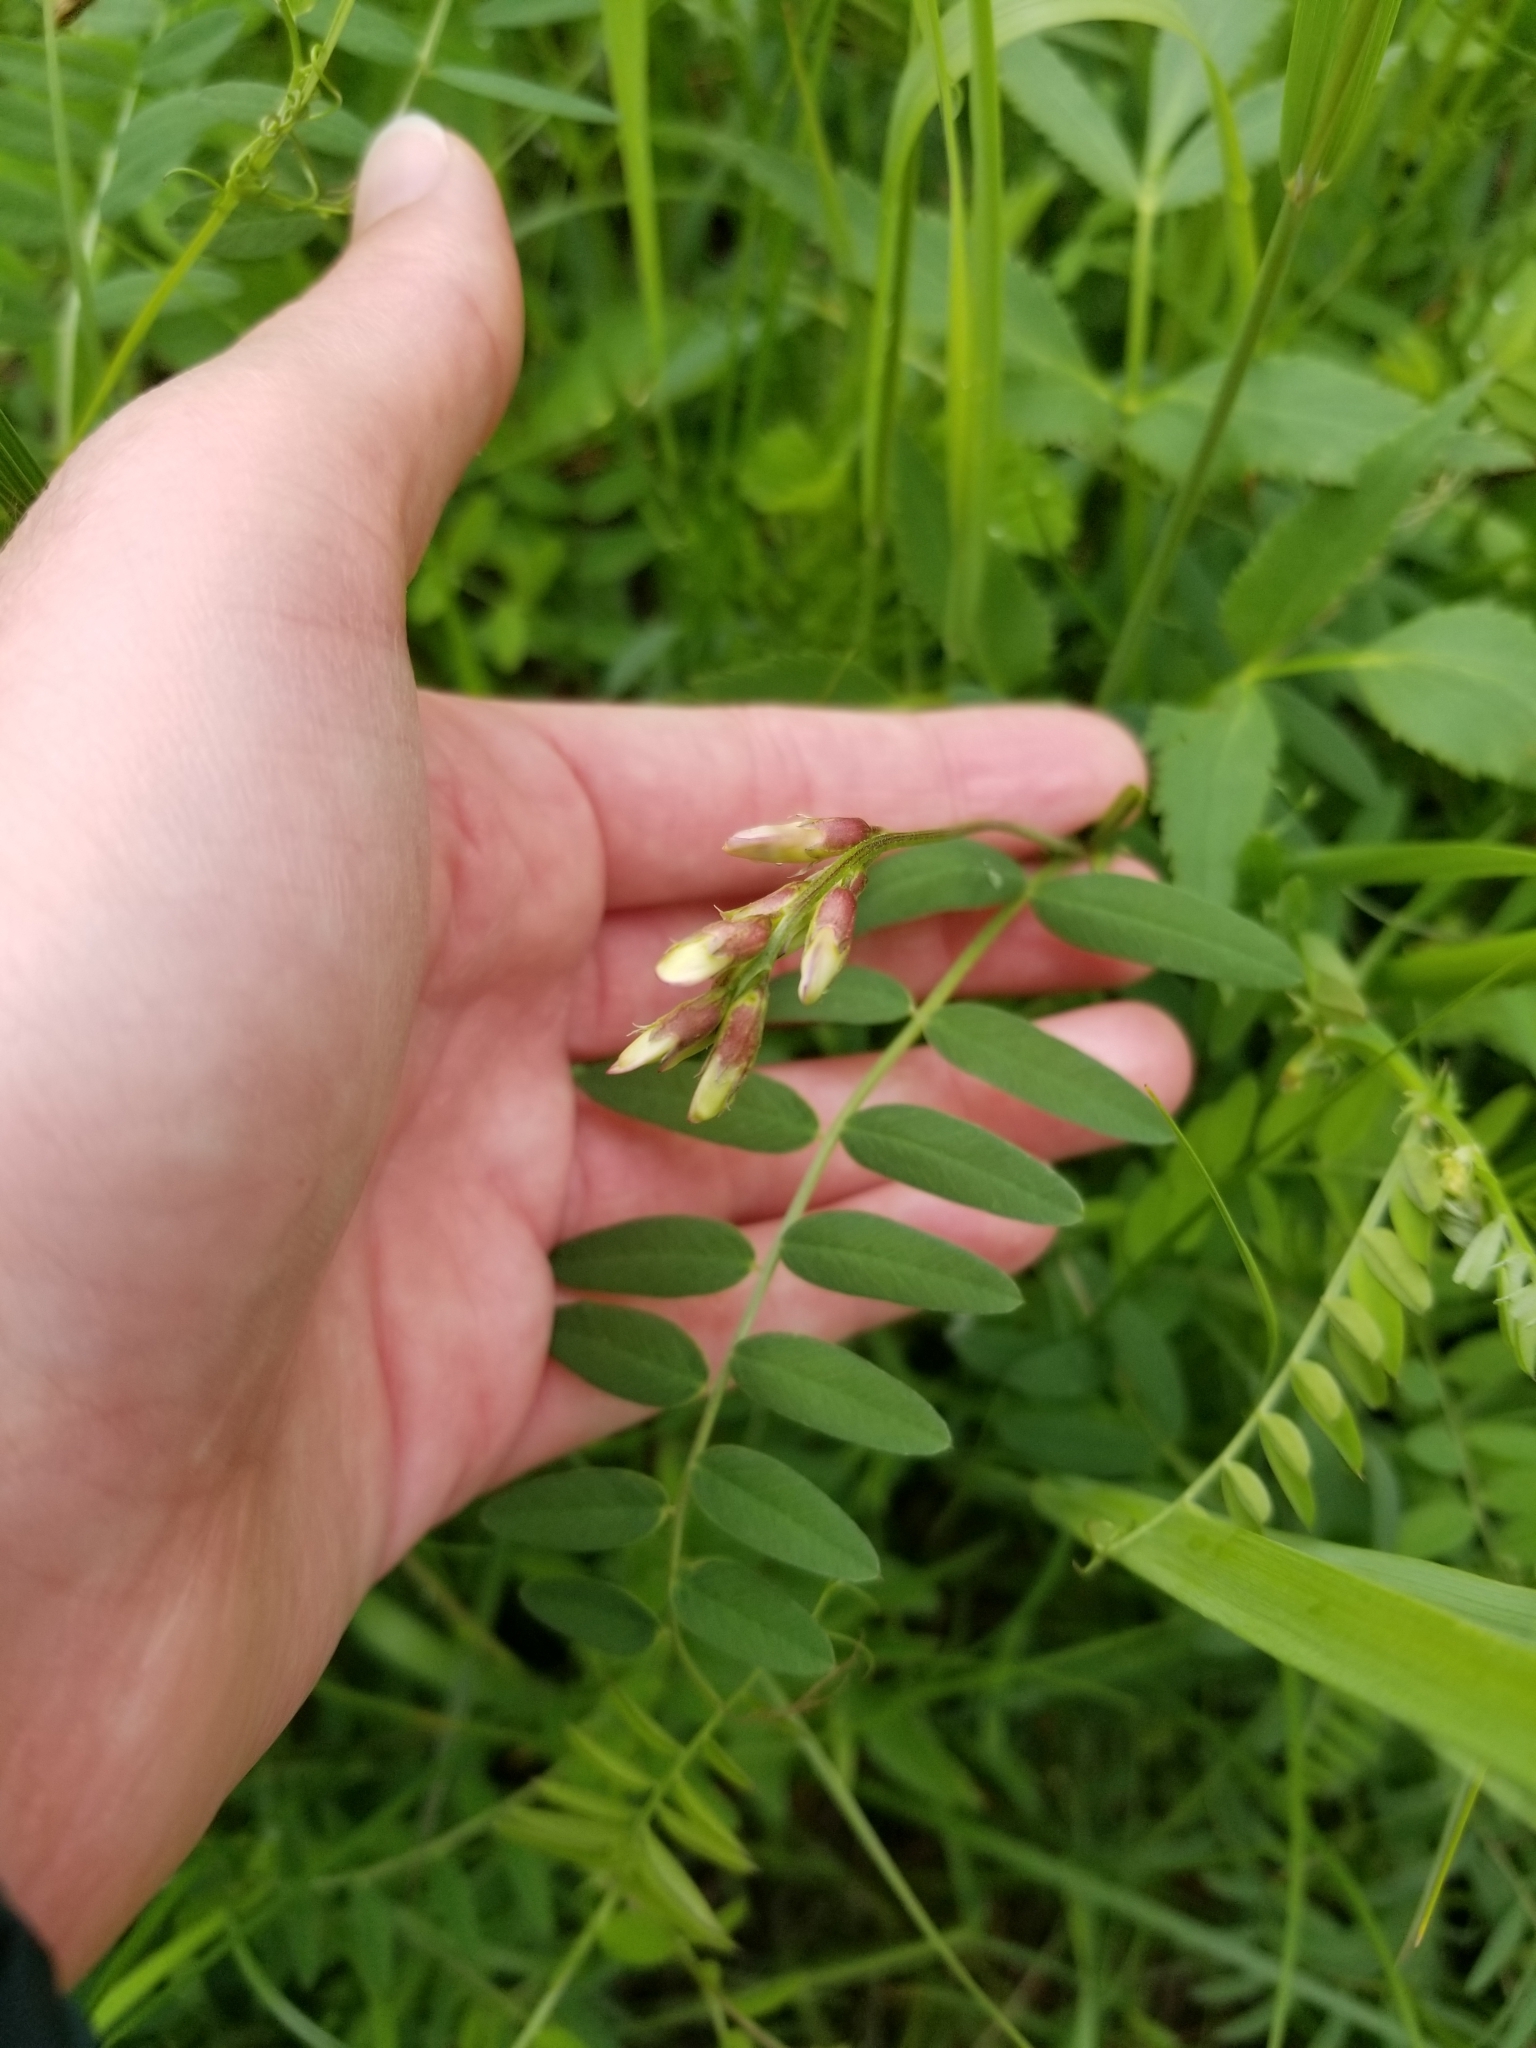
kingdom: Plantae
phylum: Tracheophyta
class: Magnoliopsida
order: Fabales
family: Fabaceae
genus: Vicia
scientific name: Vicia americana
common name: American vetch
